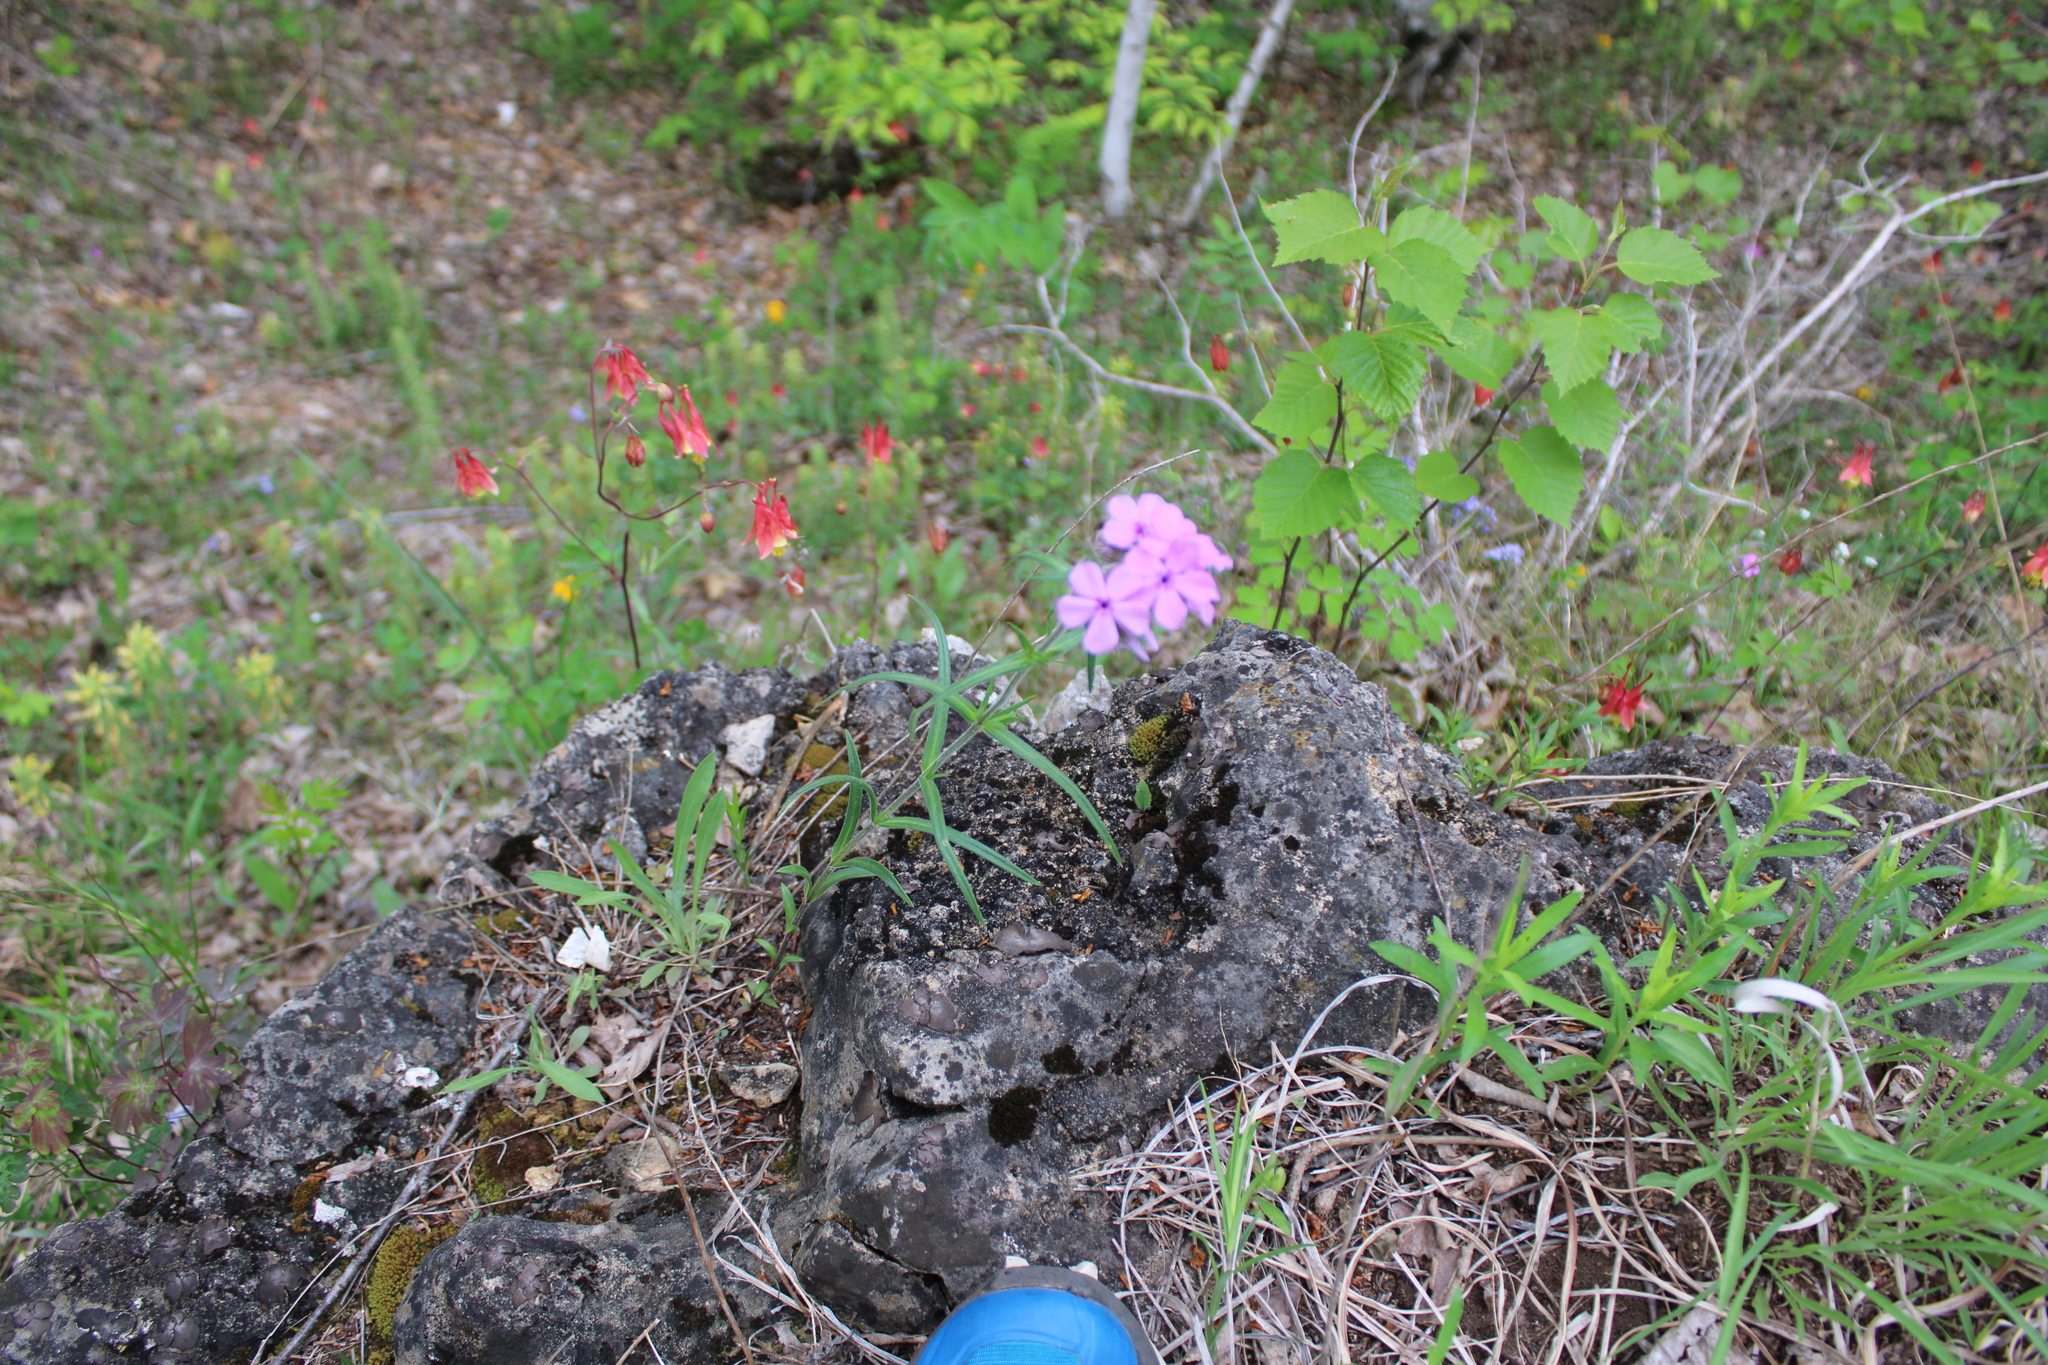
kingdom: Plantae
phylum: Tracheophyta
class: Magnoliopsida
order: Ericales
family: Polemoniaceae
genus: Phlox
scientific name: Phlox pilosa
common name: Prairie phlox
